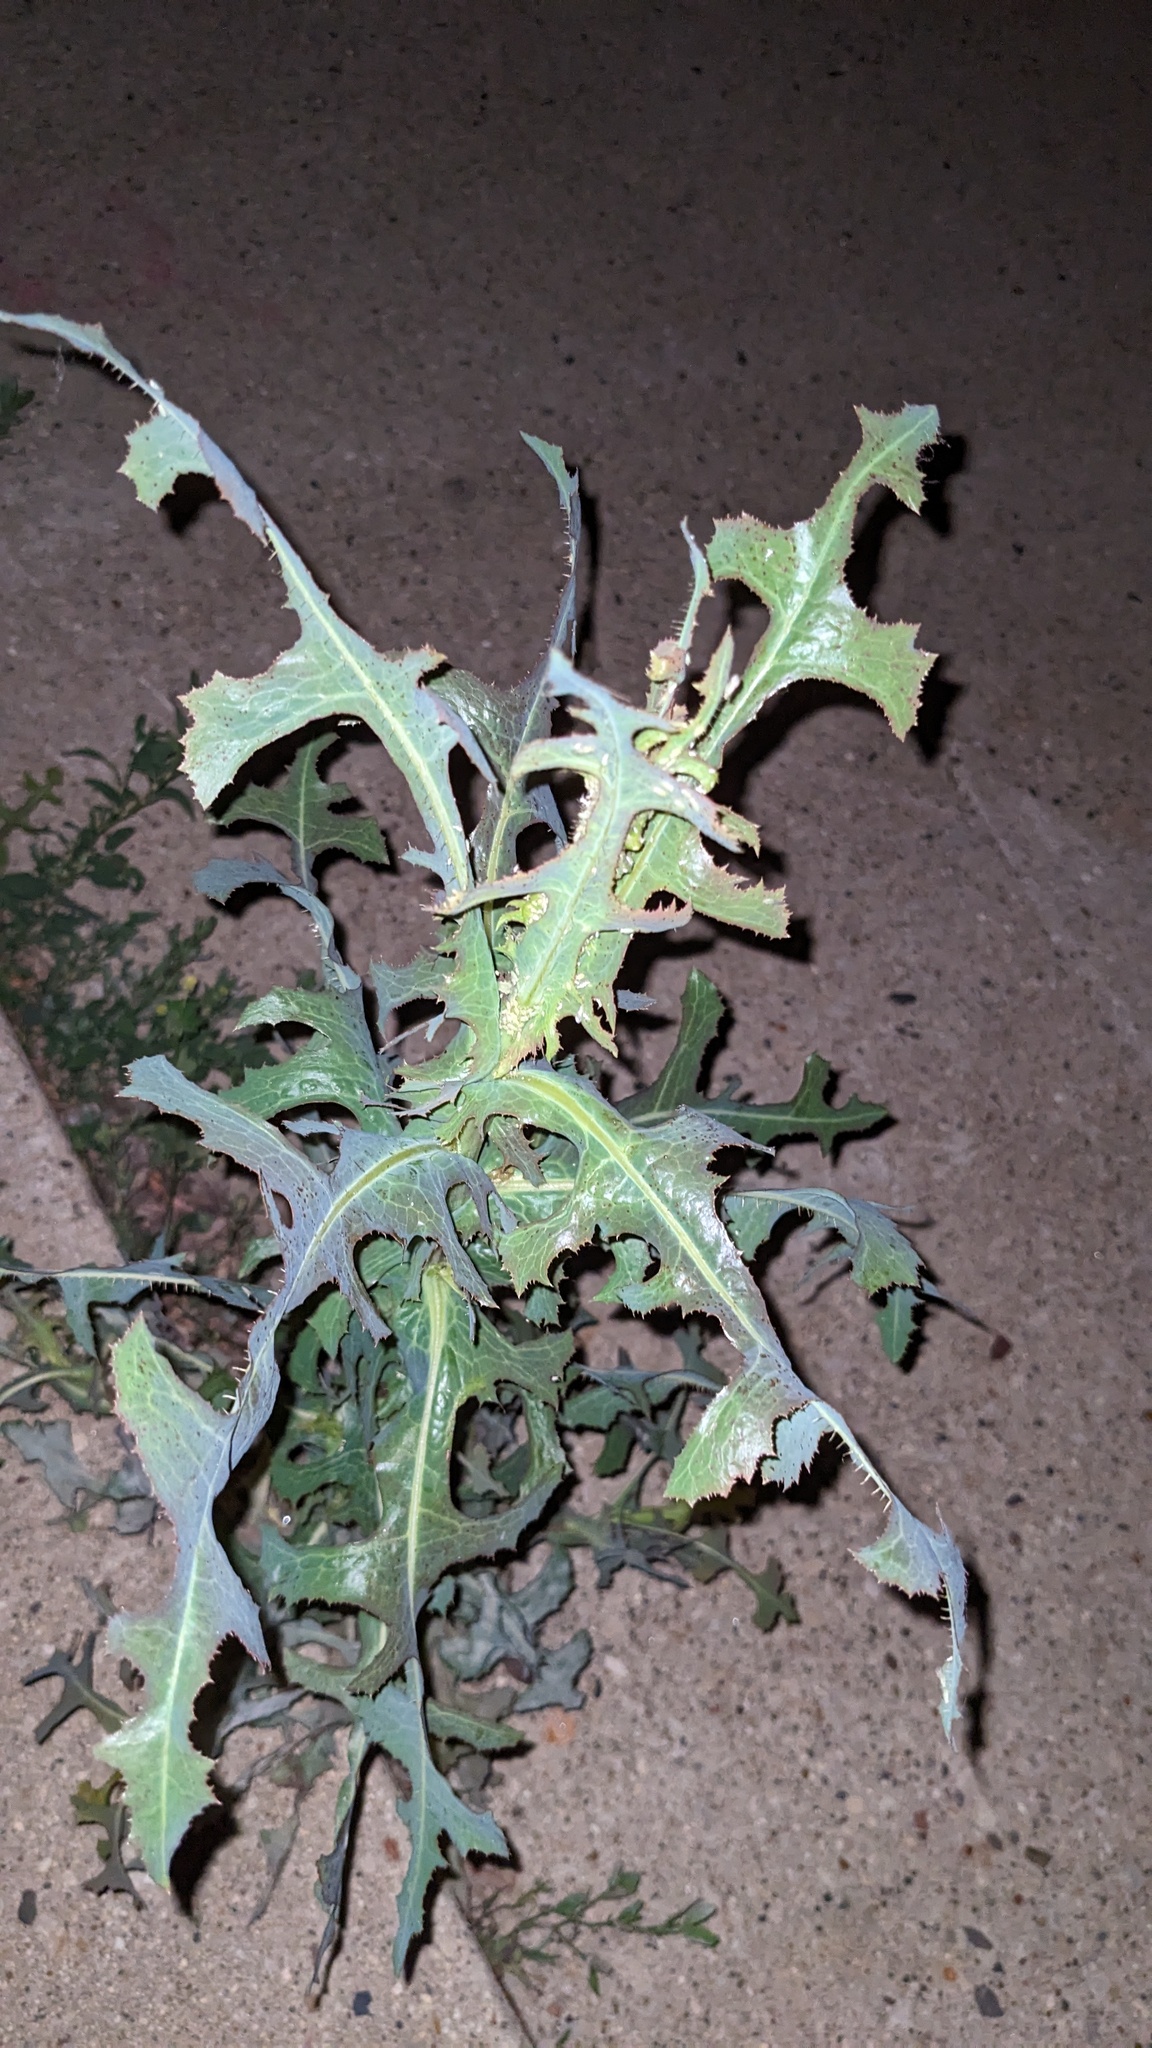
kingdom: Plantae
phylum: Tracheophyta
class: Magnoliopsida
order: Asterales
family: Asteraceae
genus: Lactuca
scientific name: Lactuca serriola
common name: Prickly lettuce
